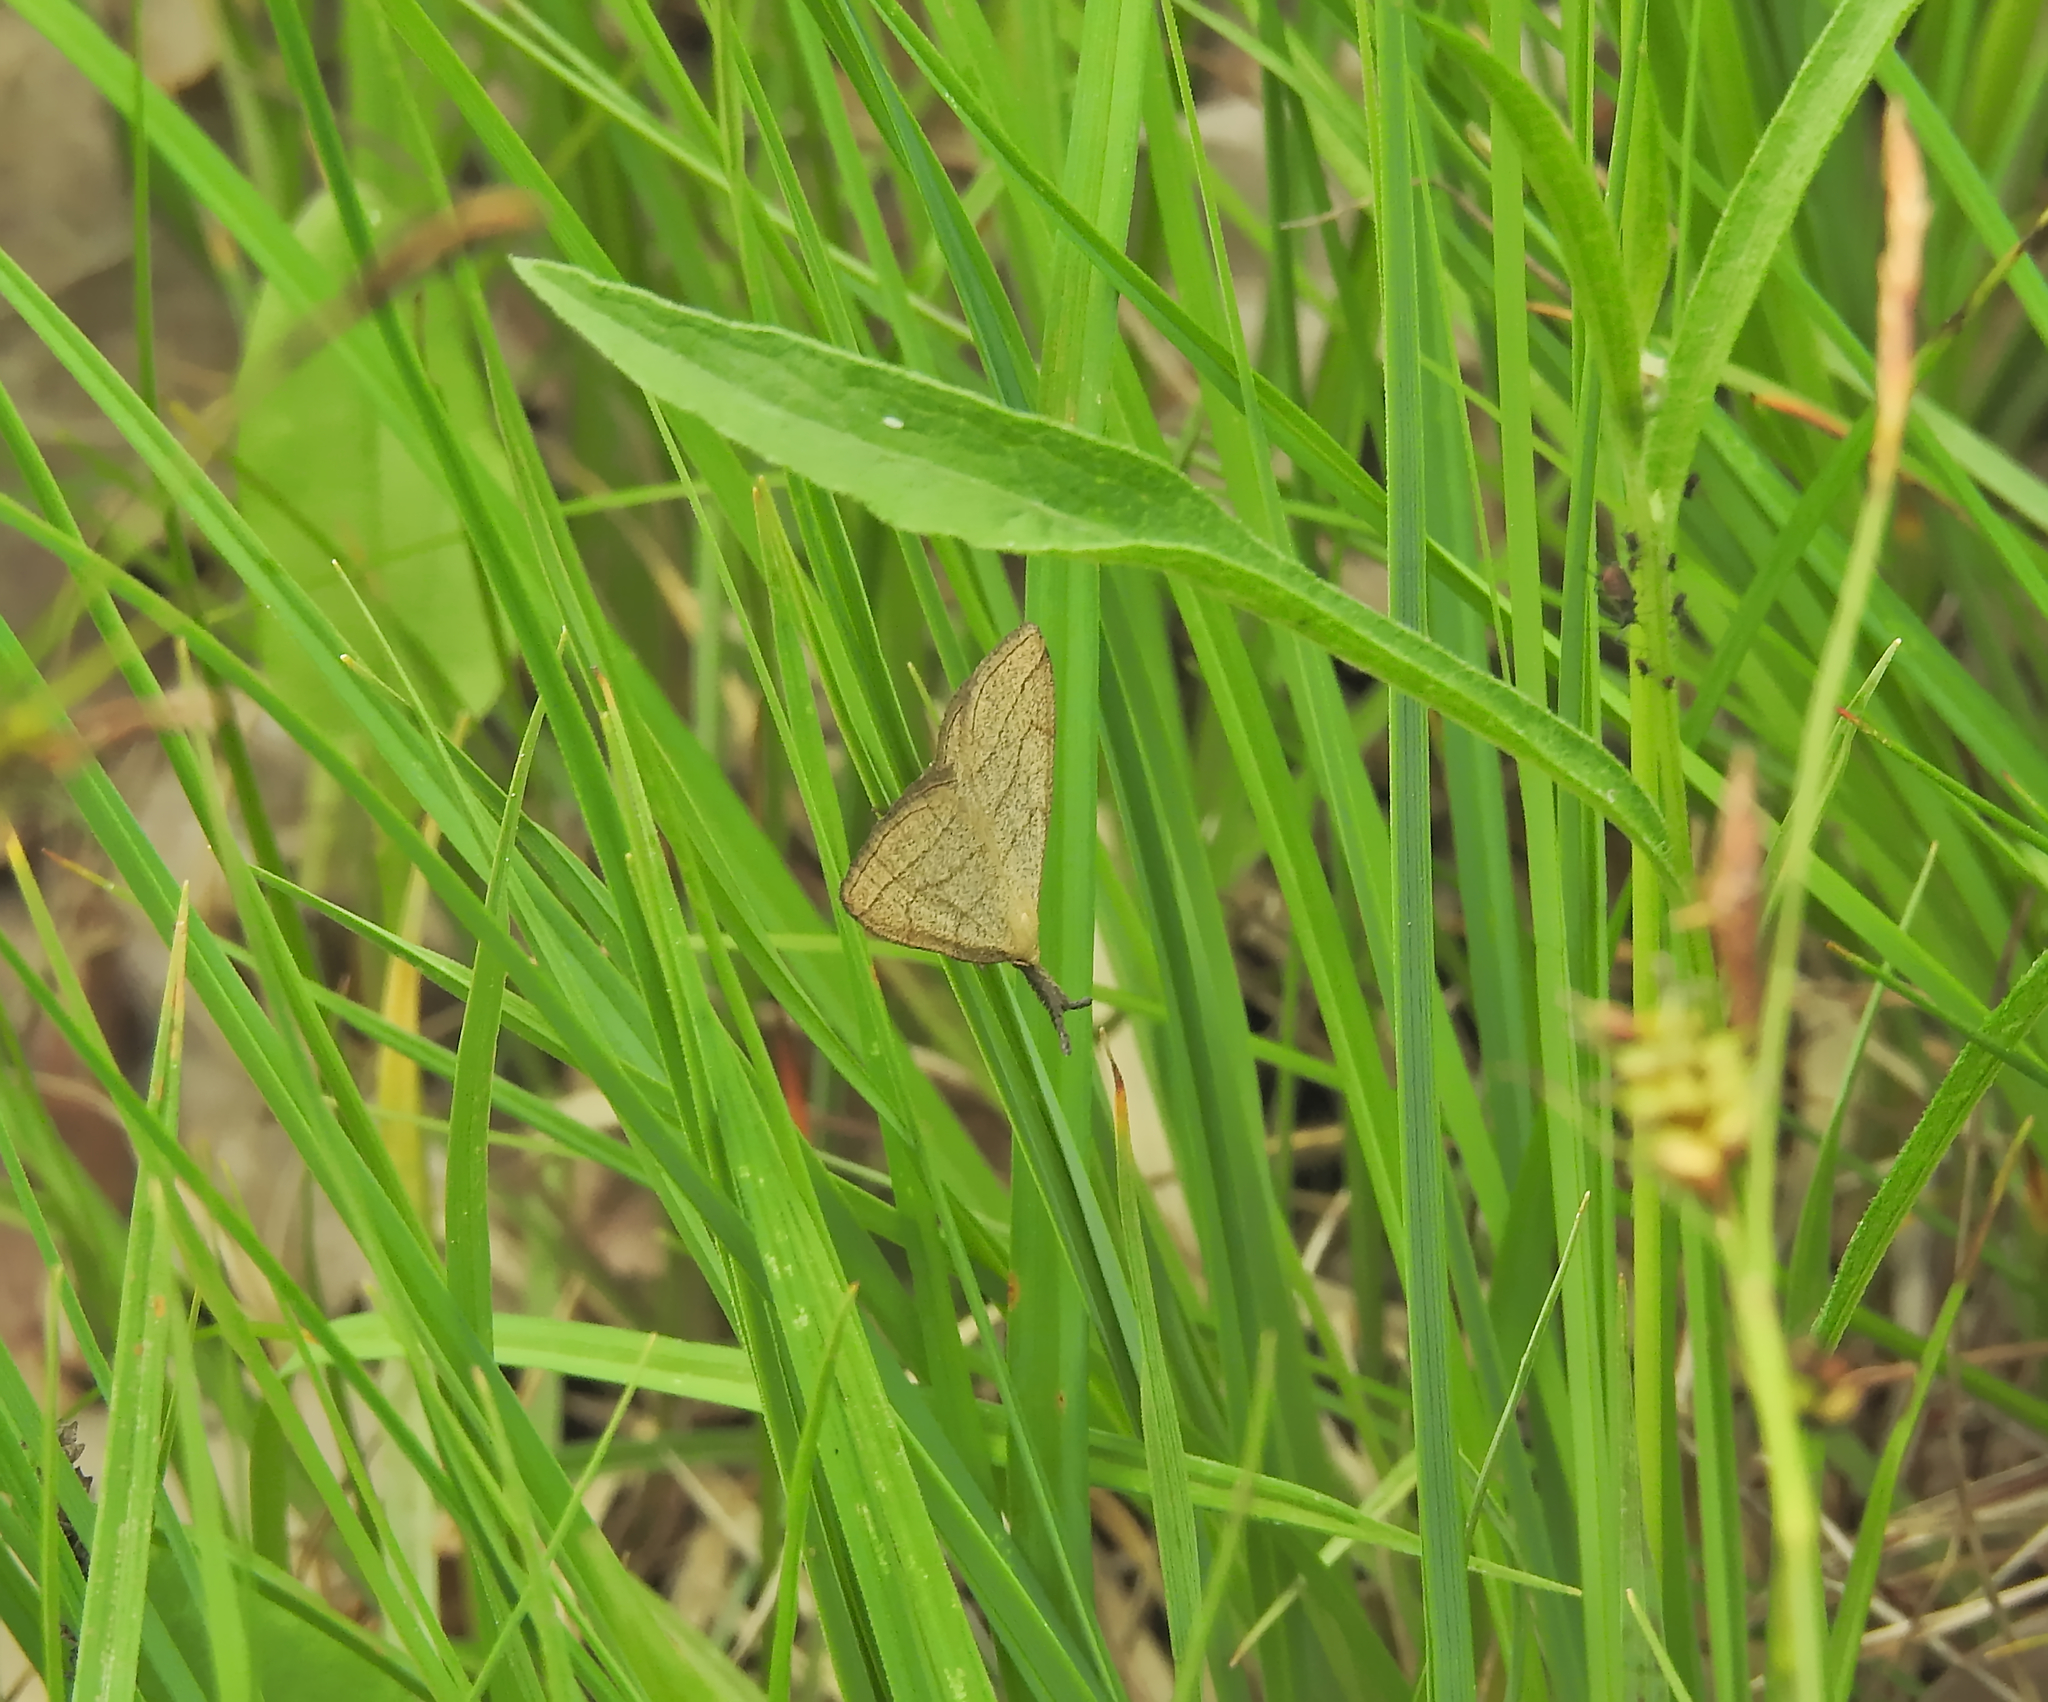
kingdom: Animalia
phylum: Arthropoda
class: Insecta
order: Lepidoptera
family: Erebidae
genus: Polypogon
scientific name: Polypogon tentacularia
